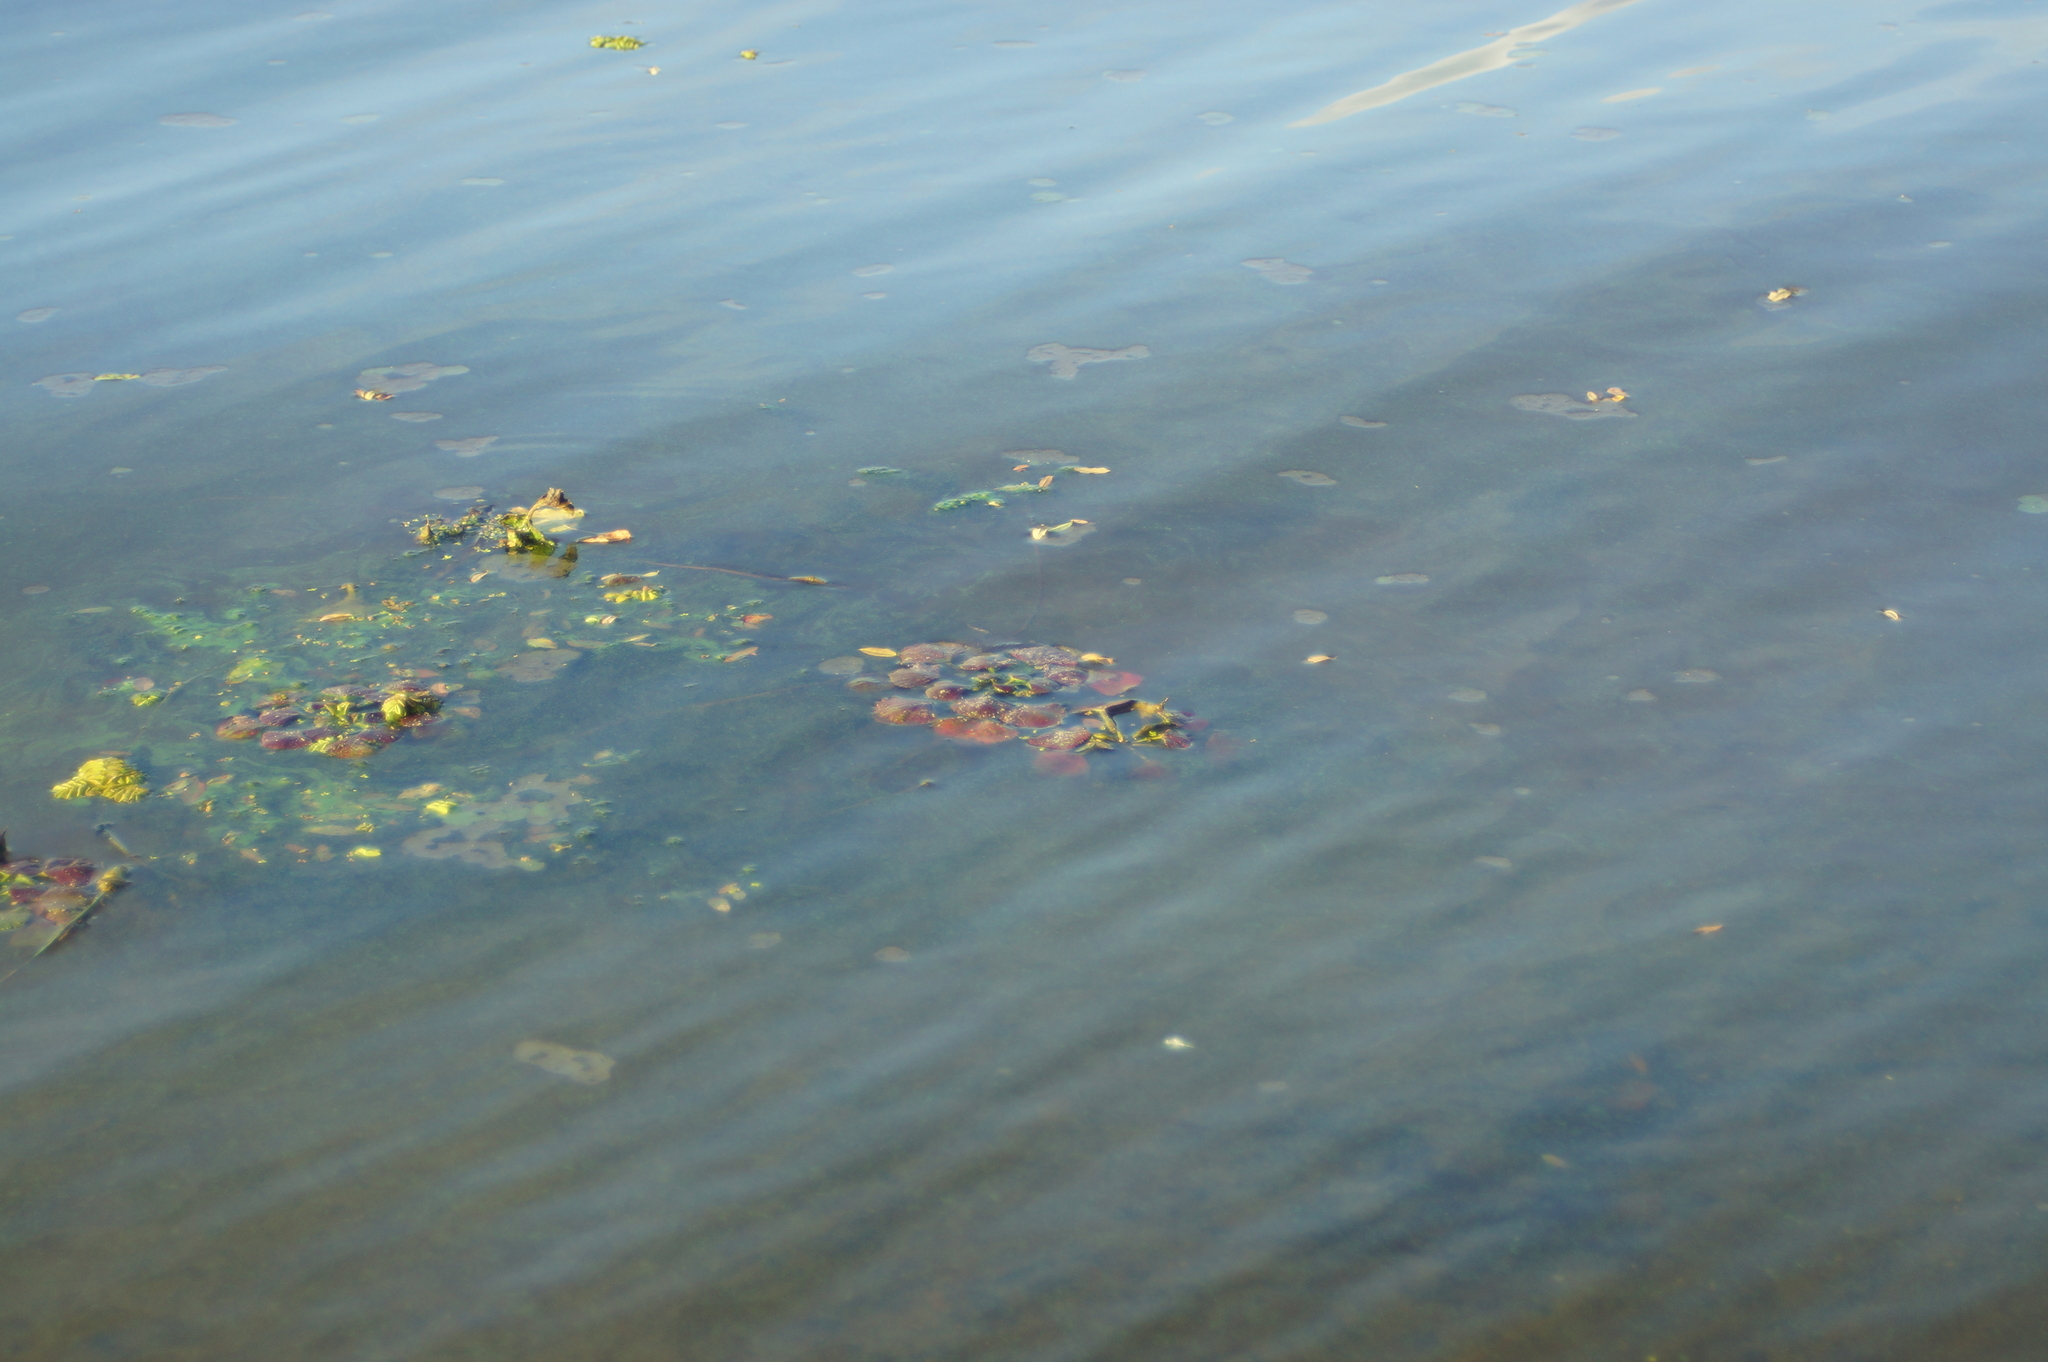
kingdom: Plantae
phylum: Tracheophyta
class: Magnoliopsida
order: Myrtales
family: Lythraceae
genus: Trapa
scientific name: Trapa natans
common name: Water chestnut
